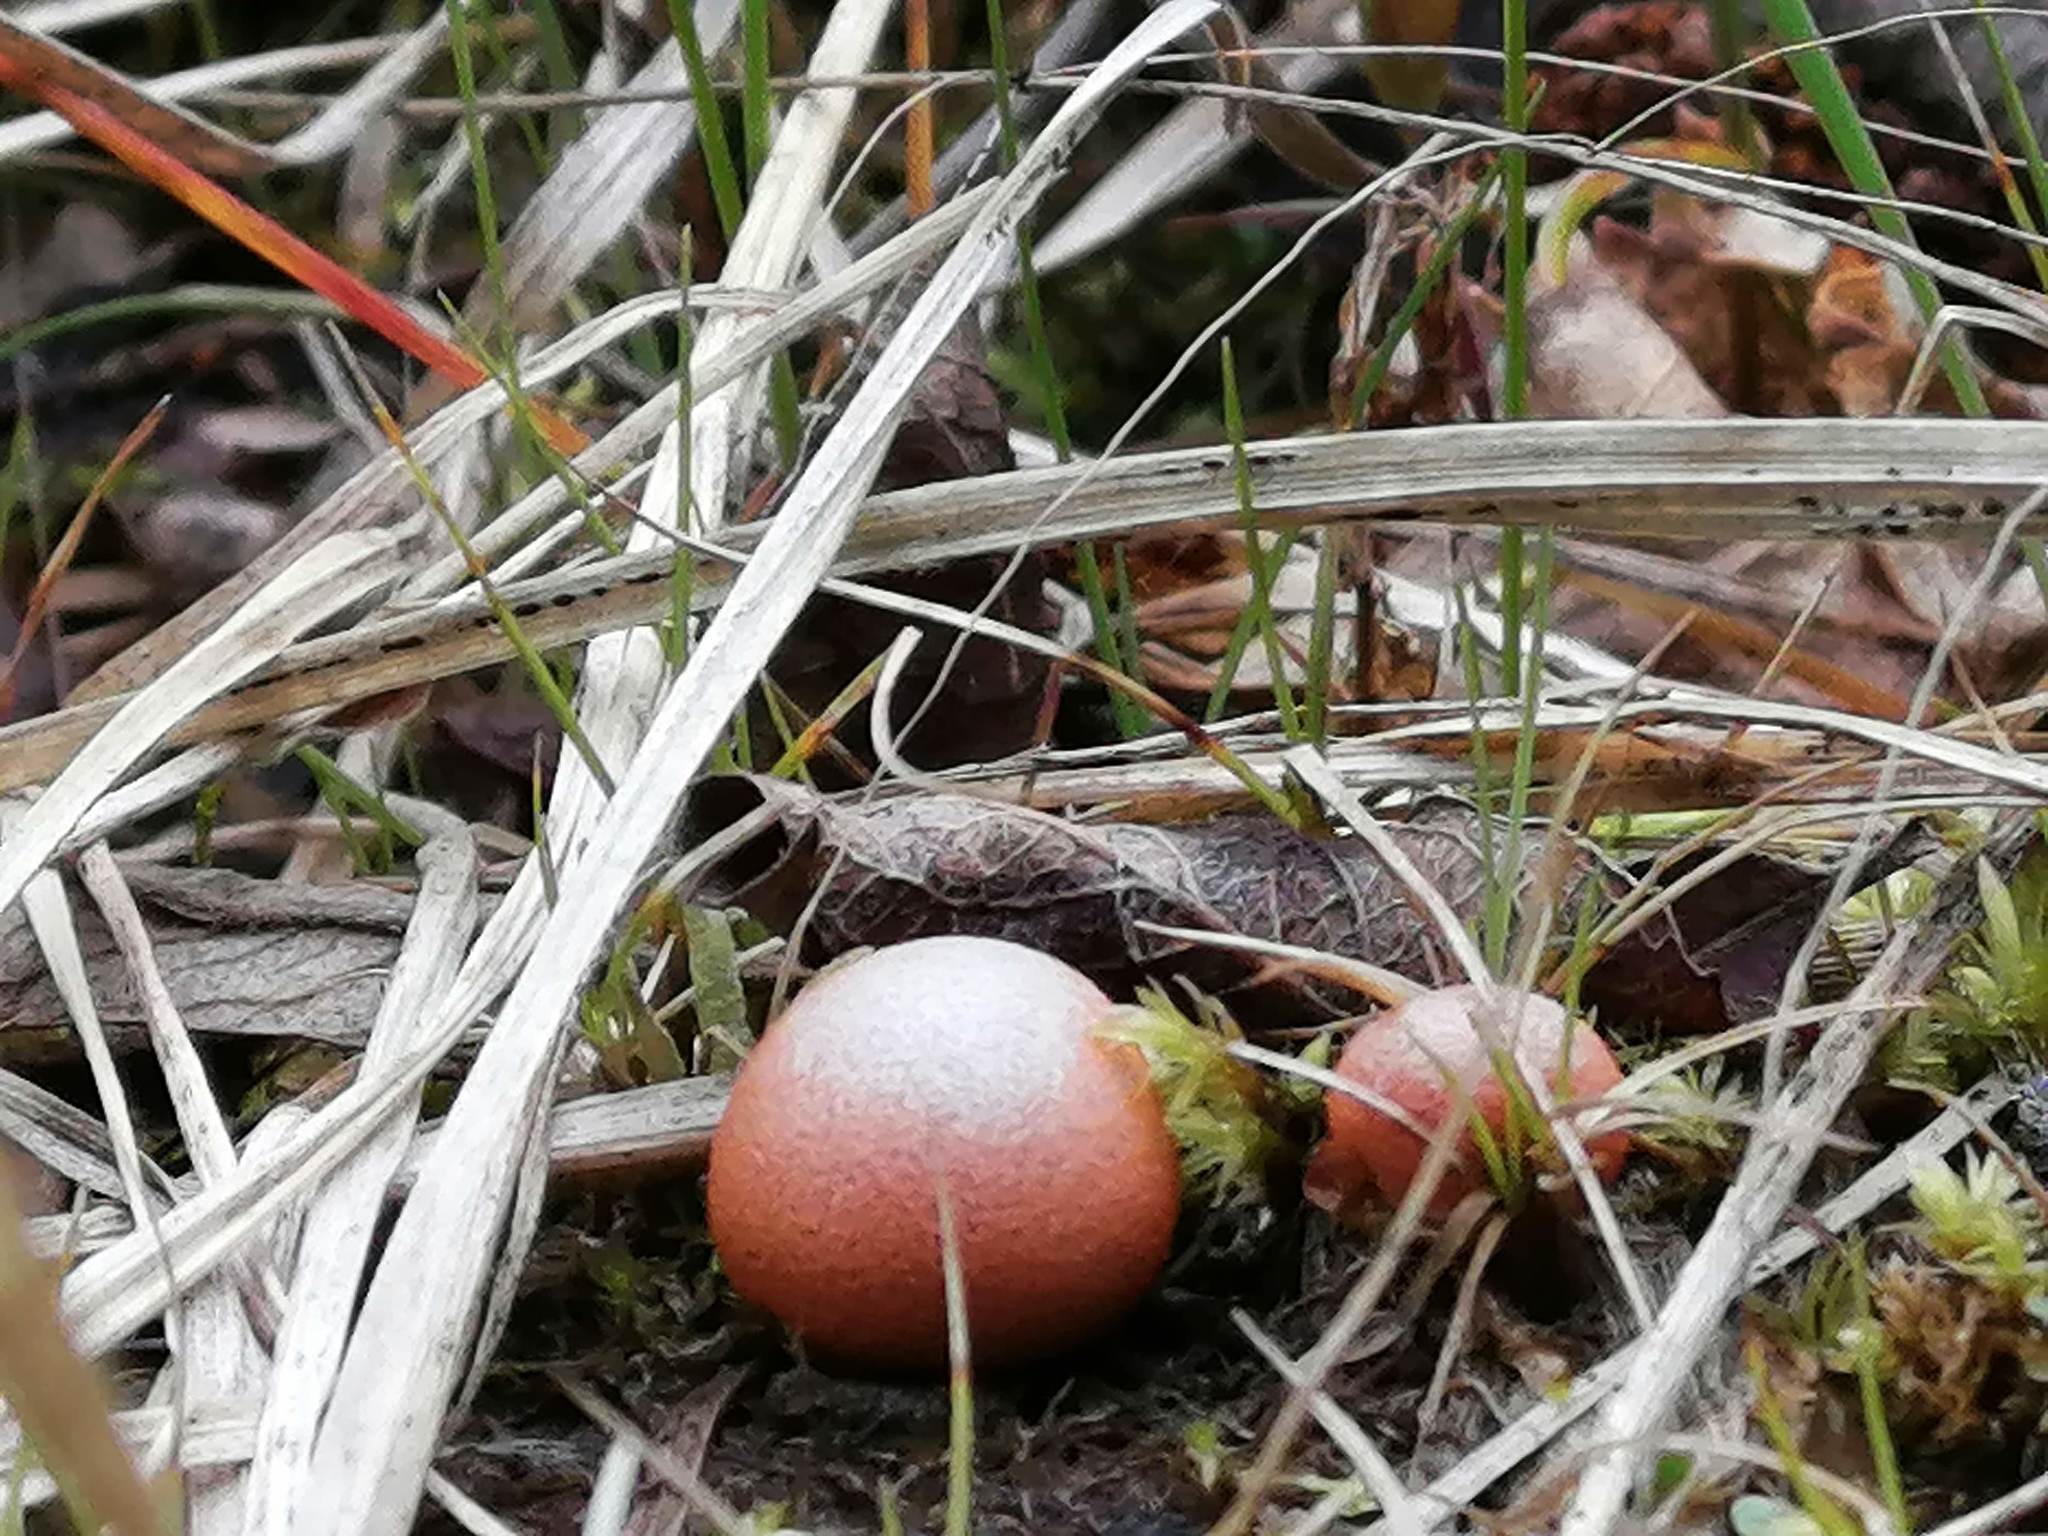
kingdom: Protozoa
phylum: Mycetozoa
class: Myxomycetes
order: Cribrariales
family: Tubiferaceae
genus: Lycogala
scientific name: Lycogala epidendrum
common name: Wolf's milk
